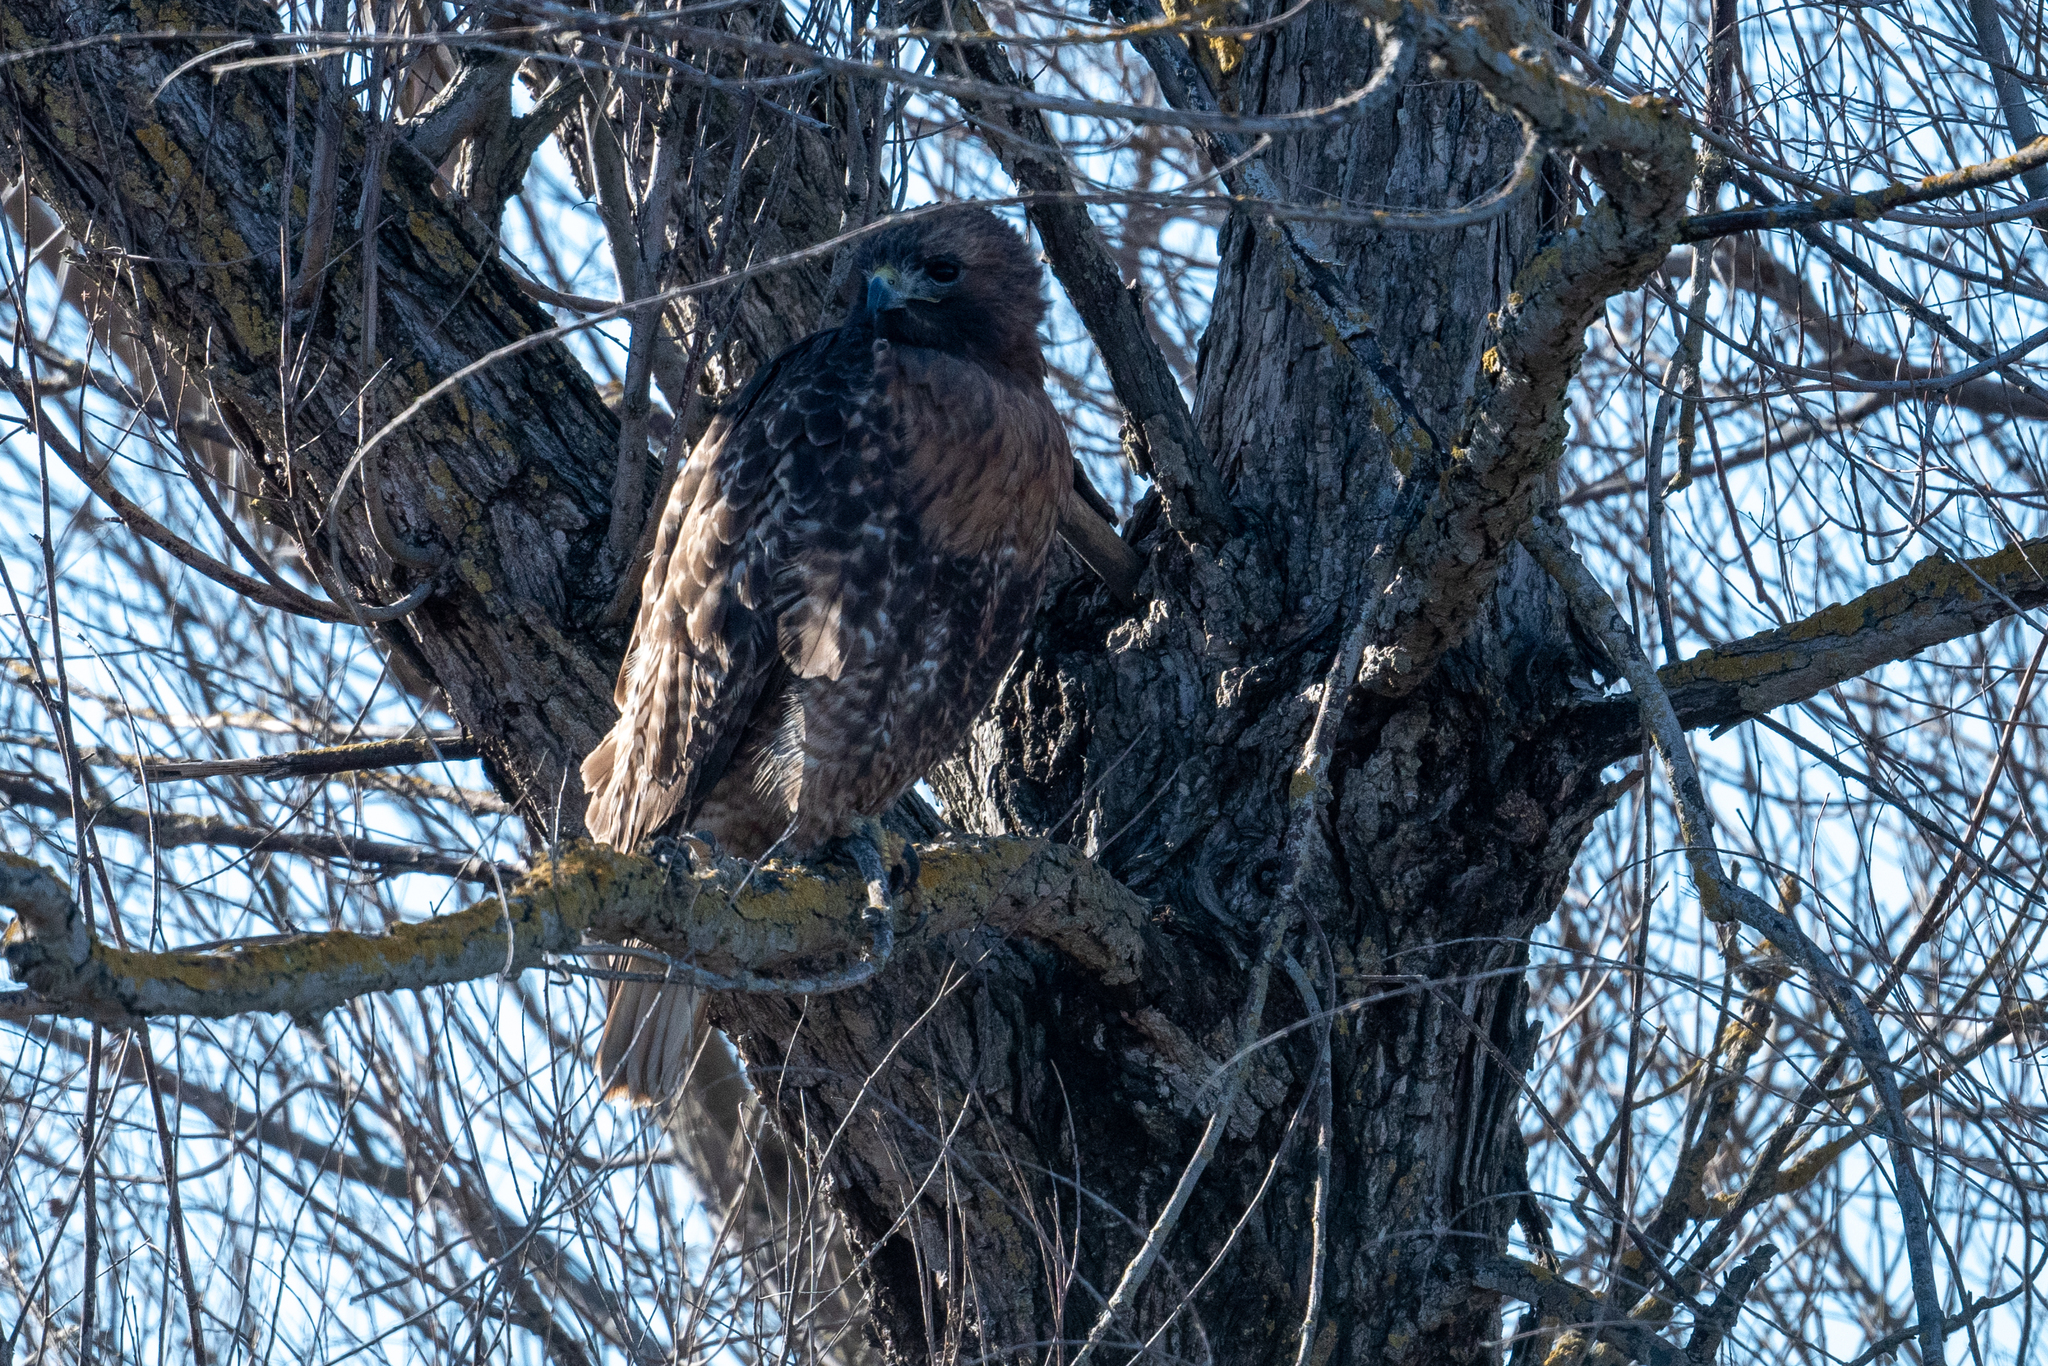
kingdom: Animalia
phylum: Chordata
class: Aves
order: Accipitriformes
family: Accipitridae
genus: Buteo
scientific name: Buteo jamaicensis
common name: Red-tailed hawk
